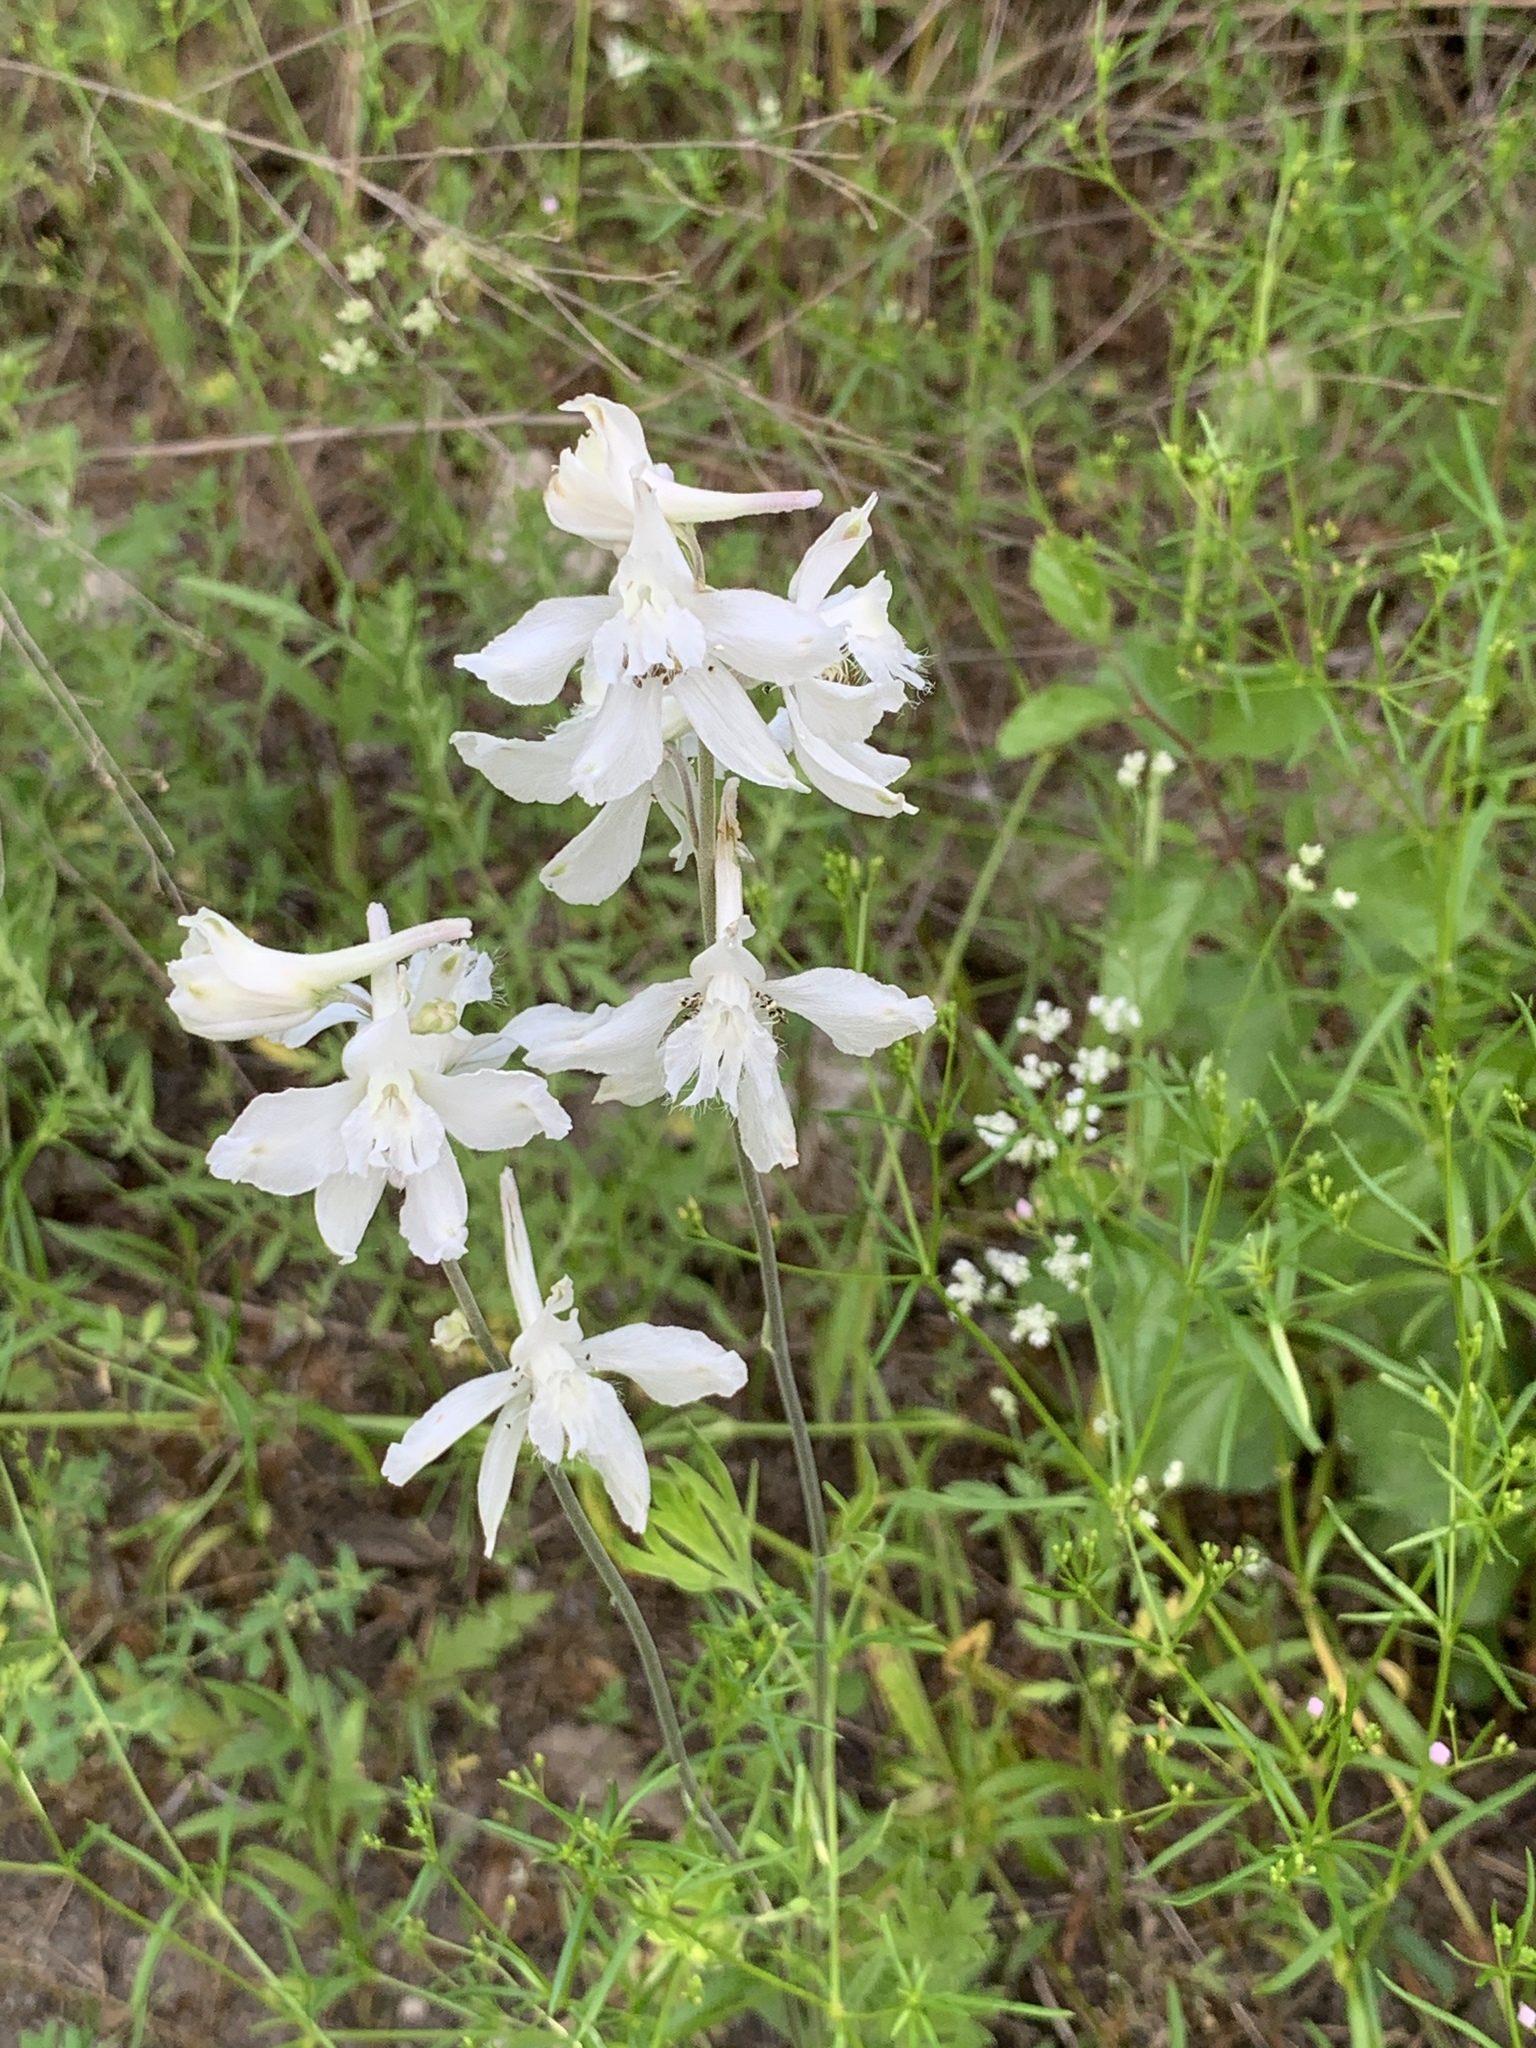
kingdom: Plantae
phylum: Tracheophyta
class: Magnoliopsida
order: Ranunculales
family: Ranunculaceae
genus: Delphinium
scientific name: Delphinium carolinianum
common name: Carolina larkspur
